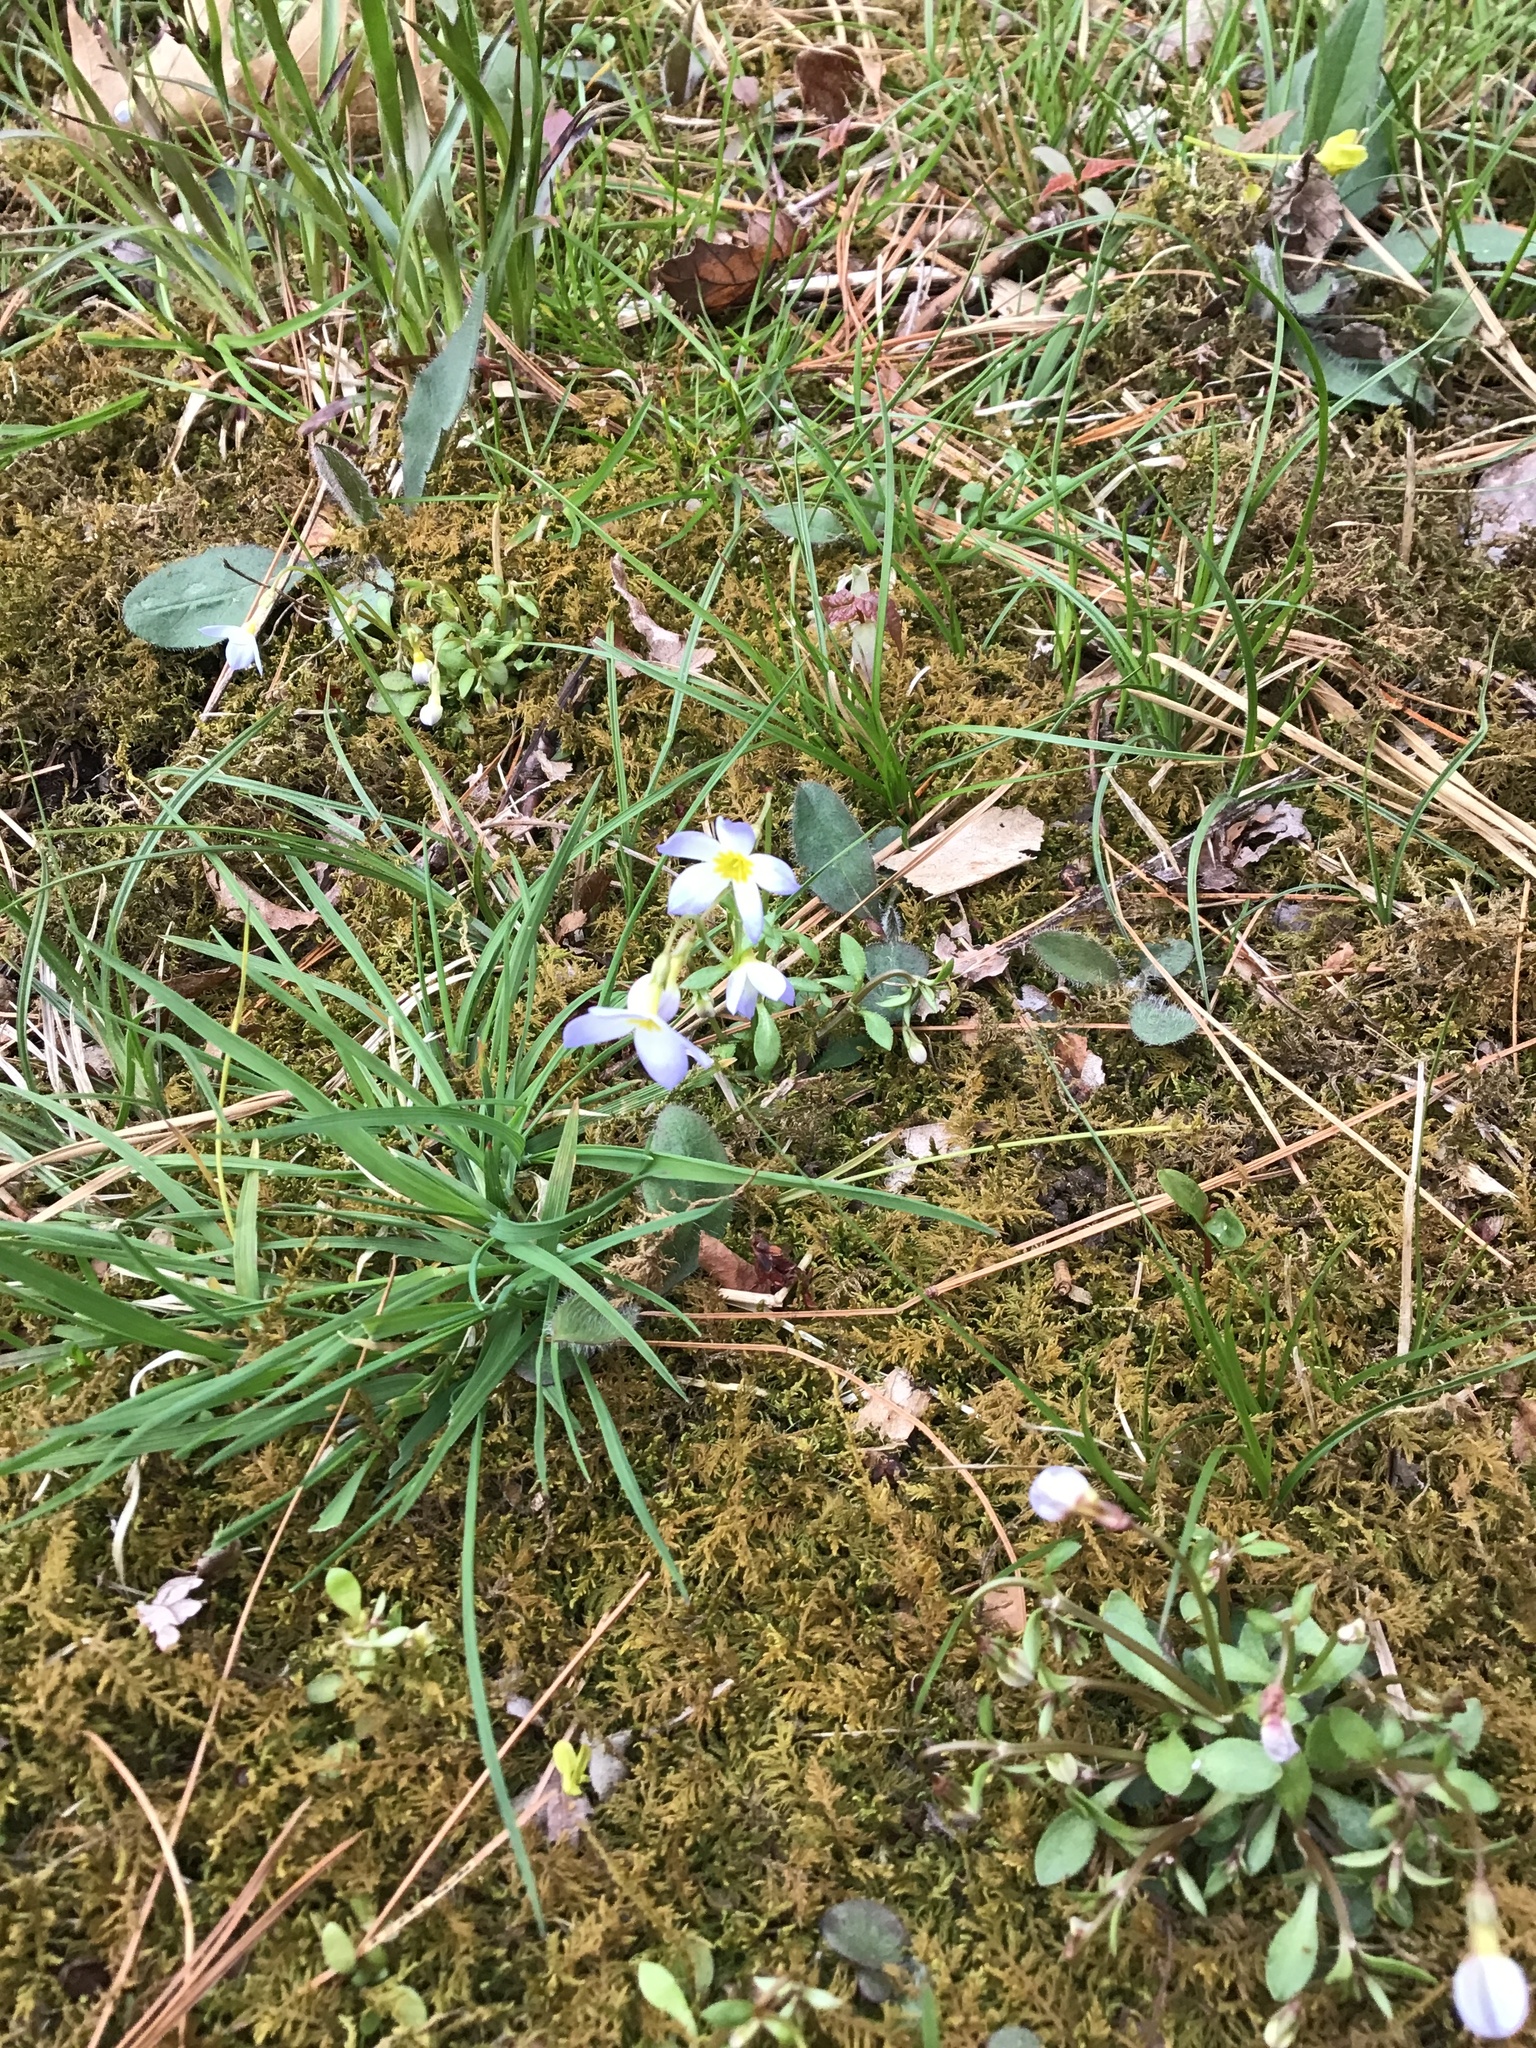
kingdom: Plantae
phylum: Tracheophyta
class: Magnoliopsida
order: Gentianales
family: Rubiaceae
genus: Houstonia
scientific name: Houstonia caerulea
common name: Bluets
